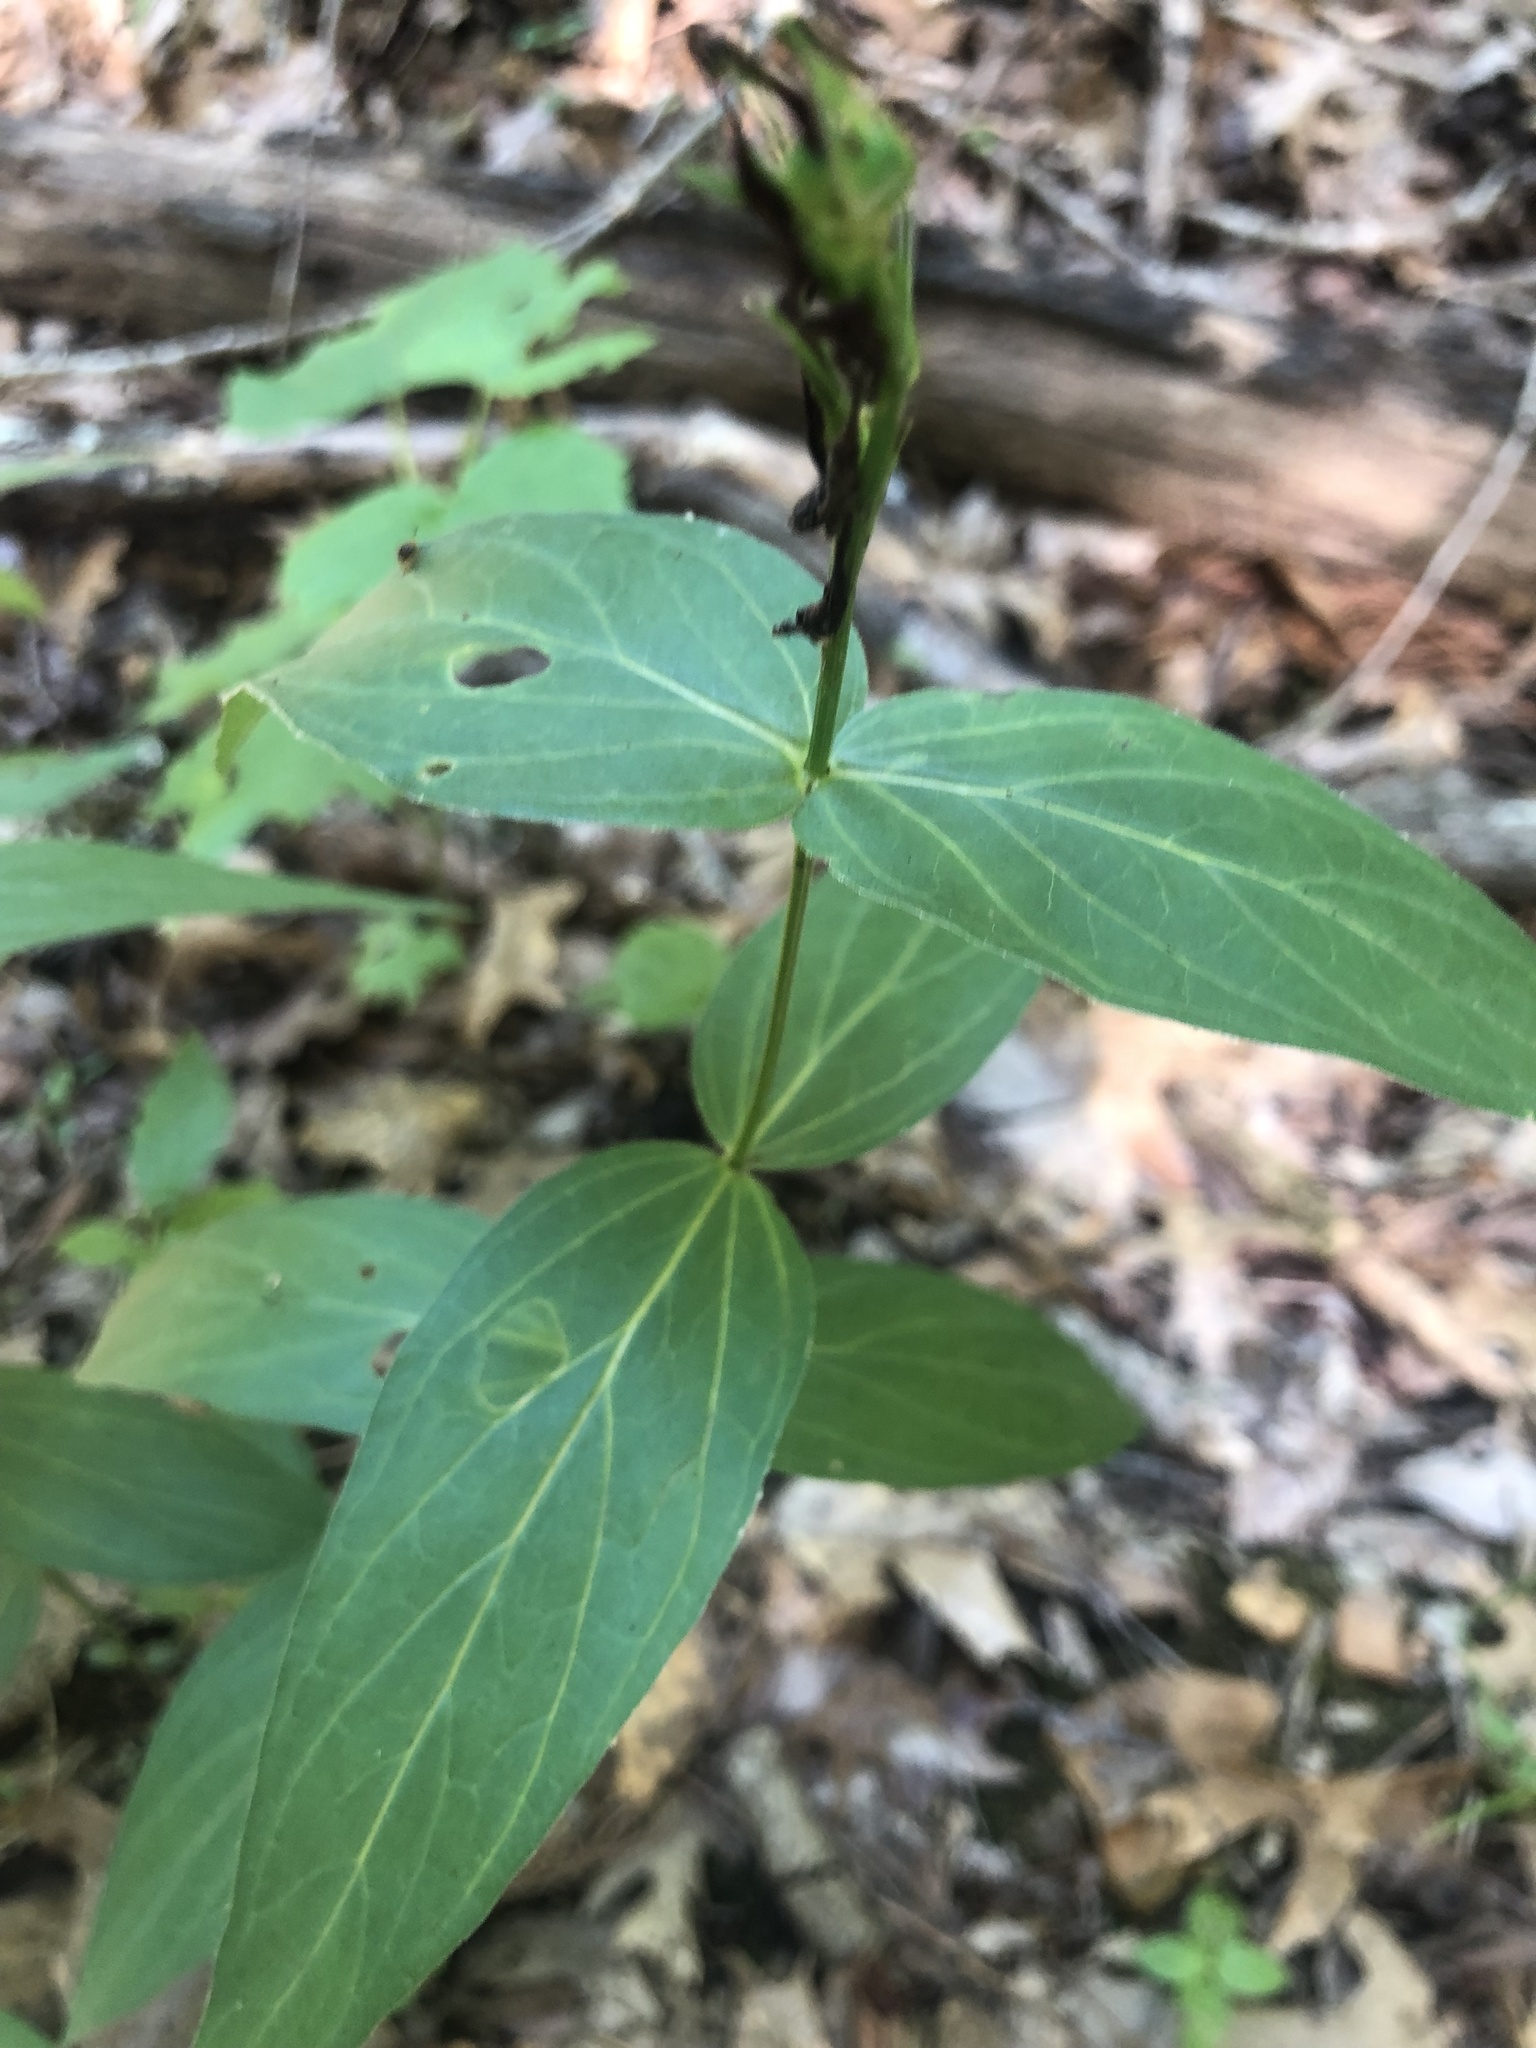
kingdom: Plantae
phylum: Tracheophyta
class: Magnoliopsida
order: Gentianales
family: Loganiaceae
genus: Spigelia
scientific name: Spigelia marilandica
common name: Indian-pink
